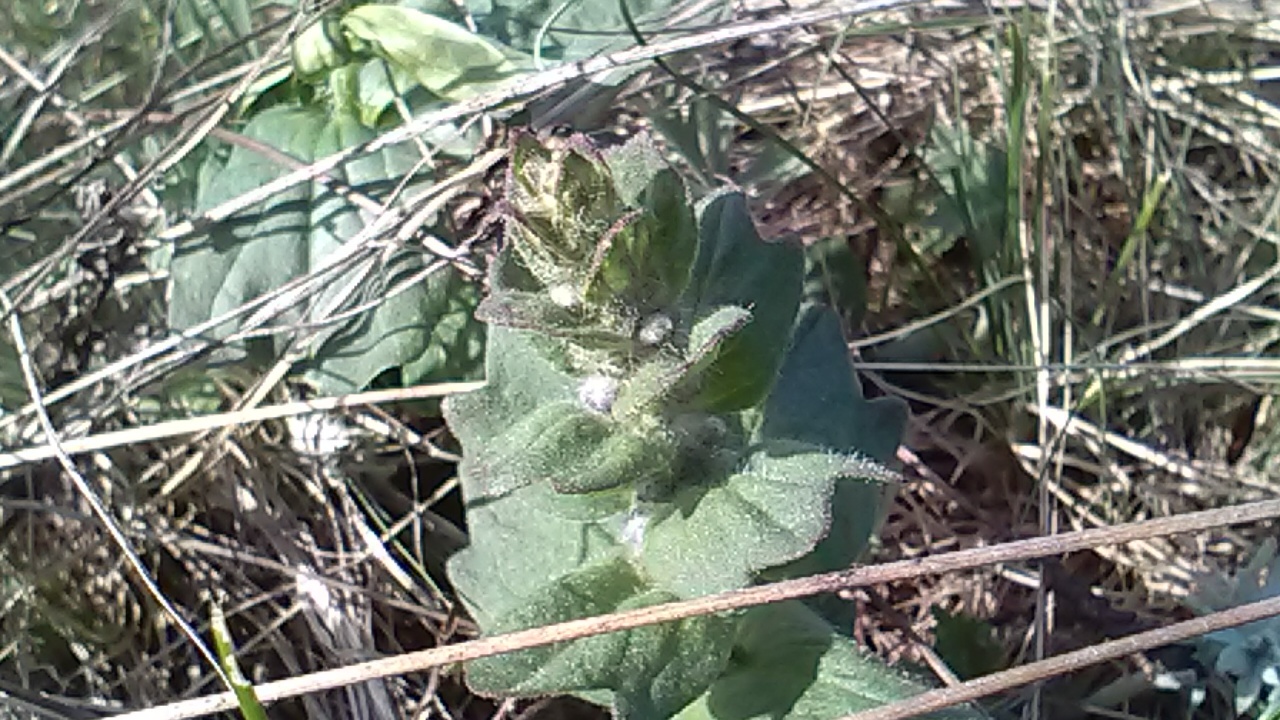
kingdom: Plantae
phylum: Tracheophyta
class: Magnoliopsida
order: Lamiales
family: Lamiaceae
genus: Ajuga
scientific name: Ajuga genevensis
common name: Blue bugle
